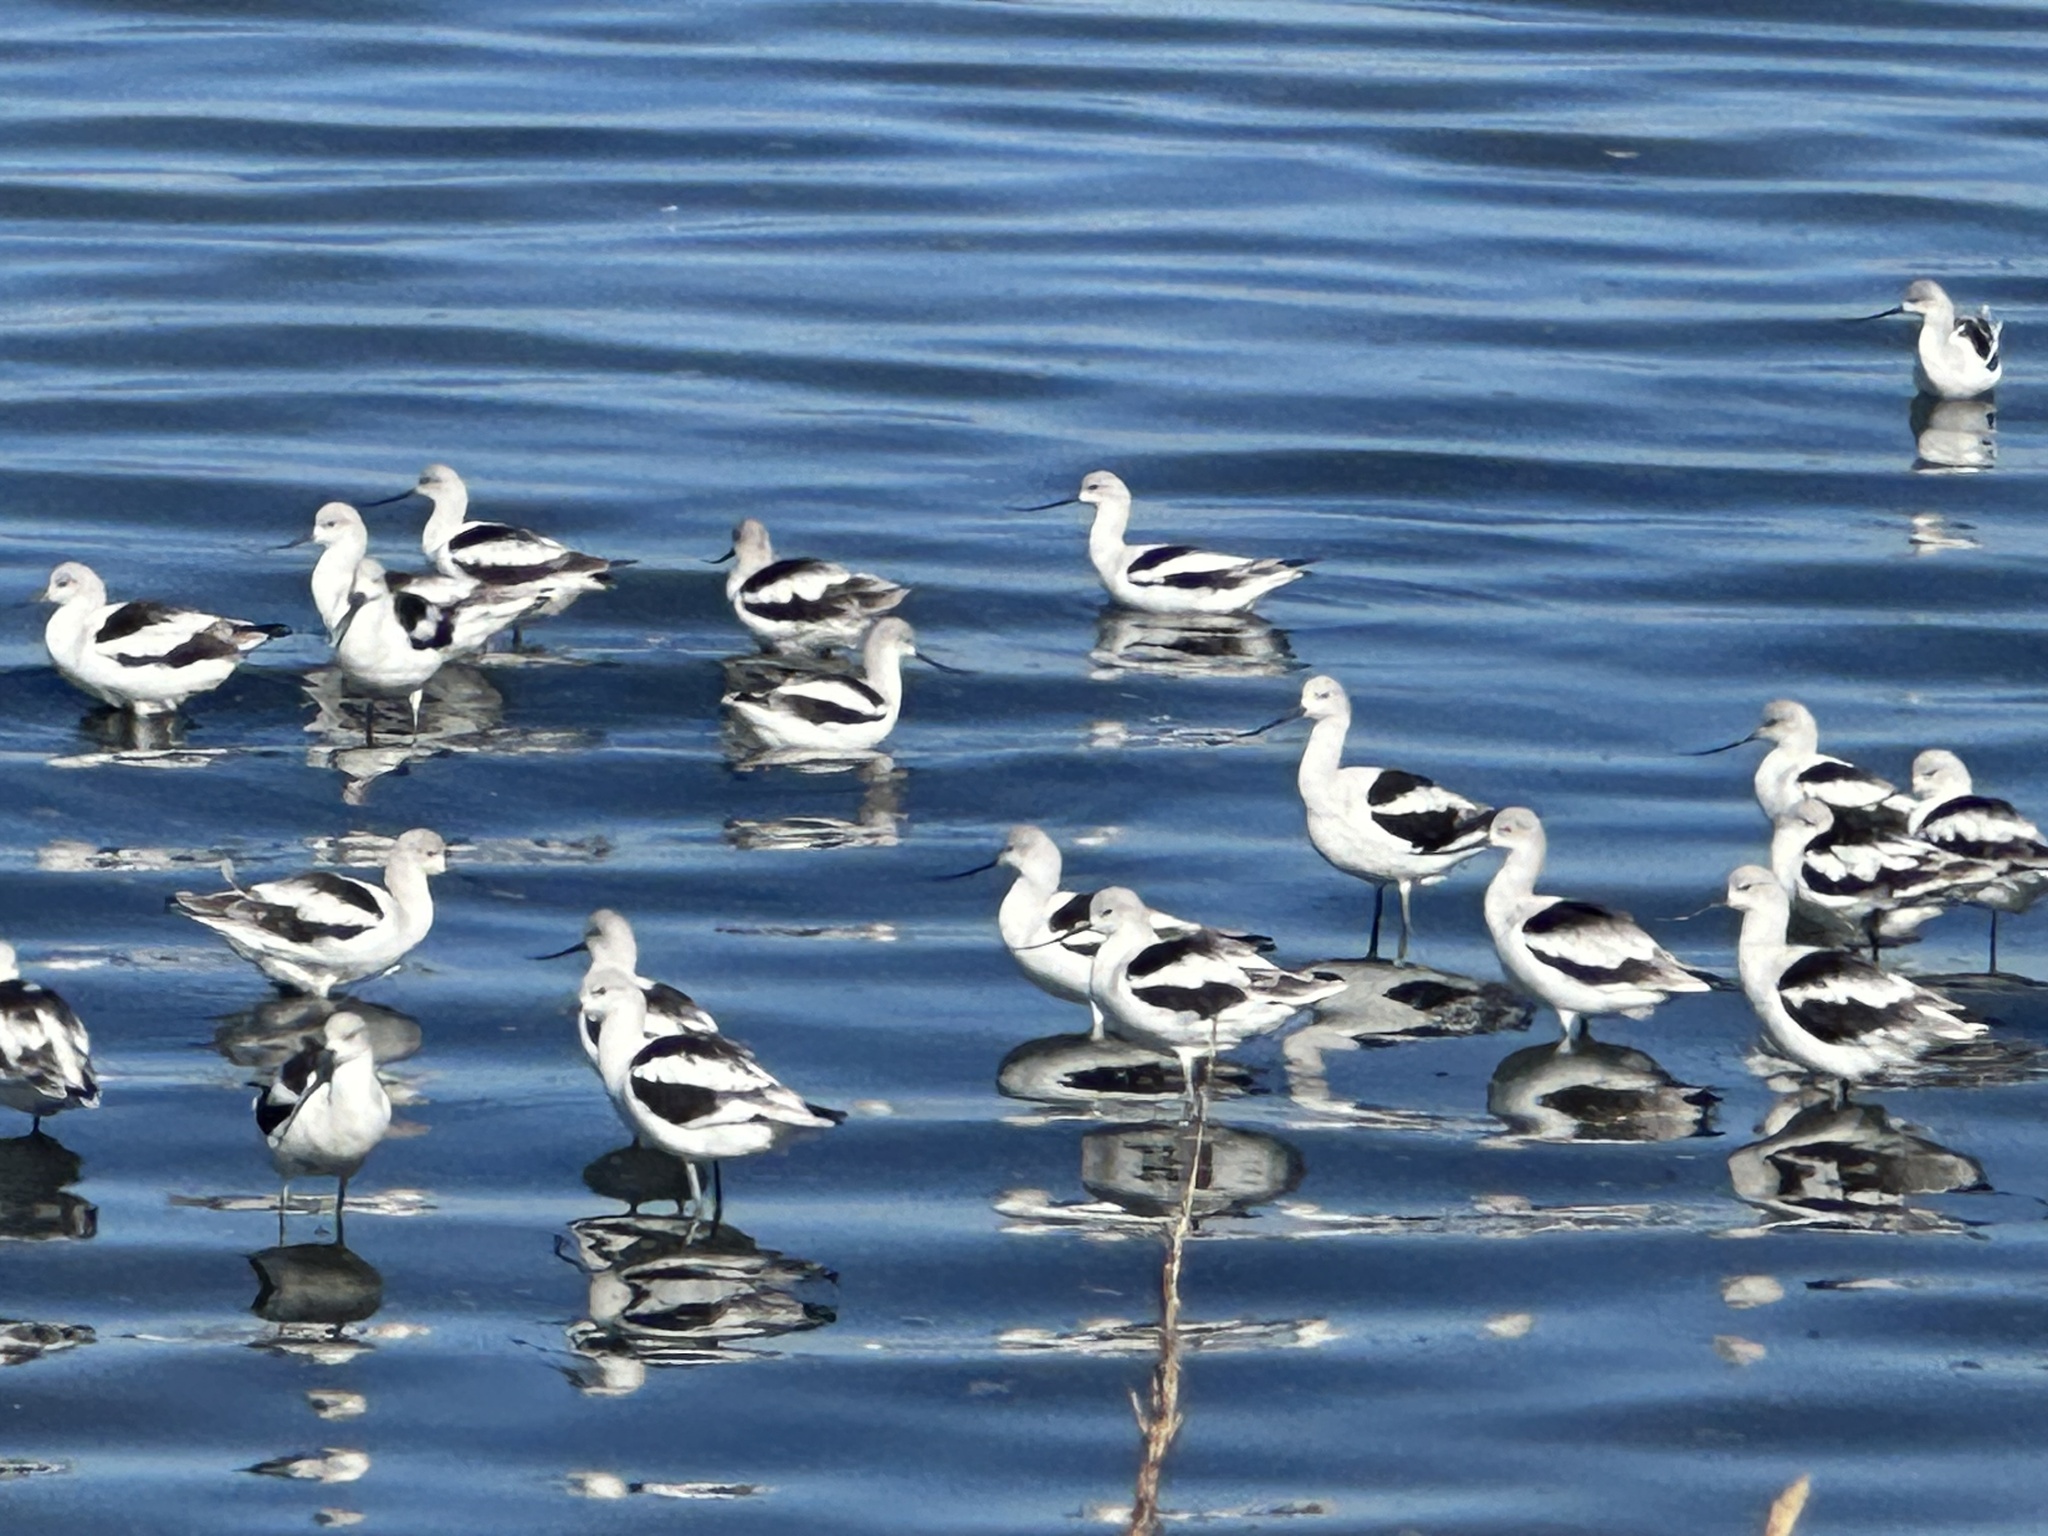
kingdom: Animalia
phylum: Chordata
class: Aves
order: Charadriiformes
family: Recurvirostridae
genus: Recurvirostra
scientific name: Recurvirostra americana
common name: American avocet
